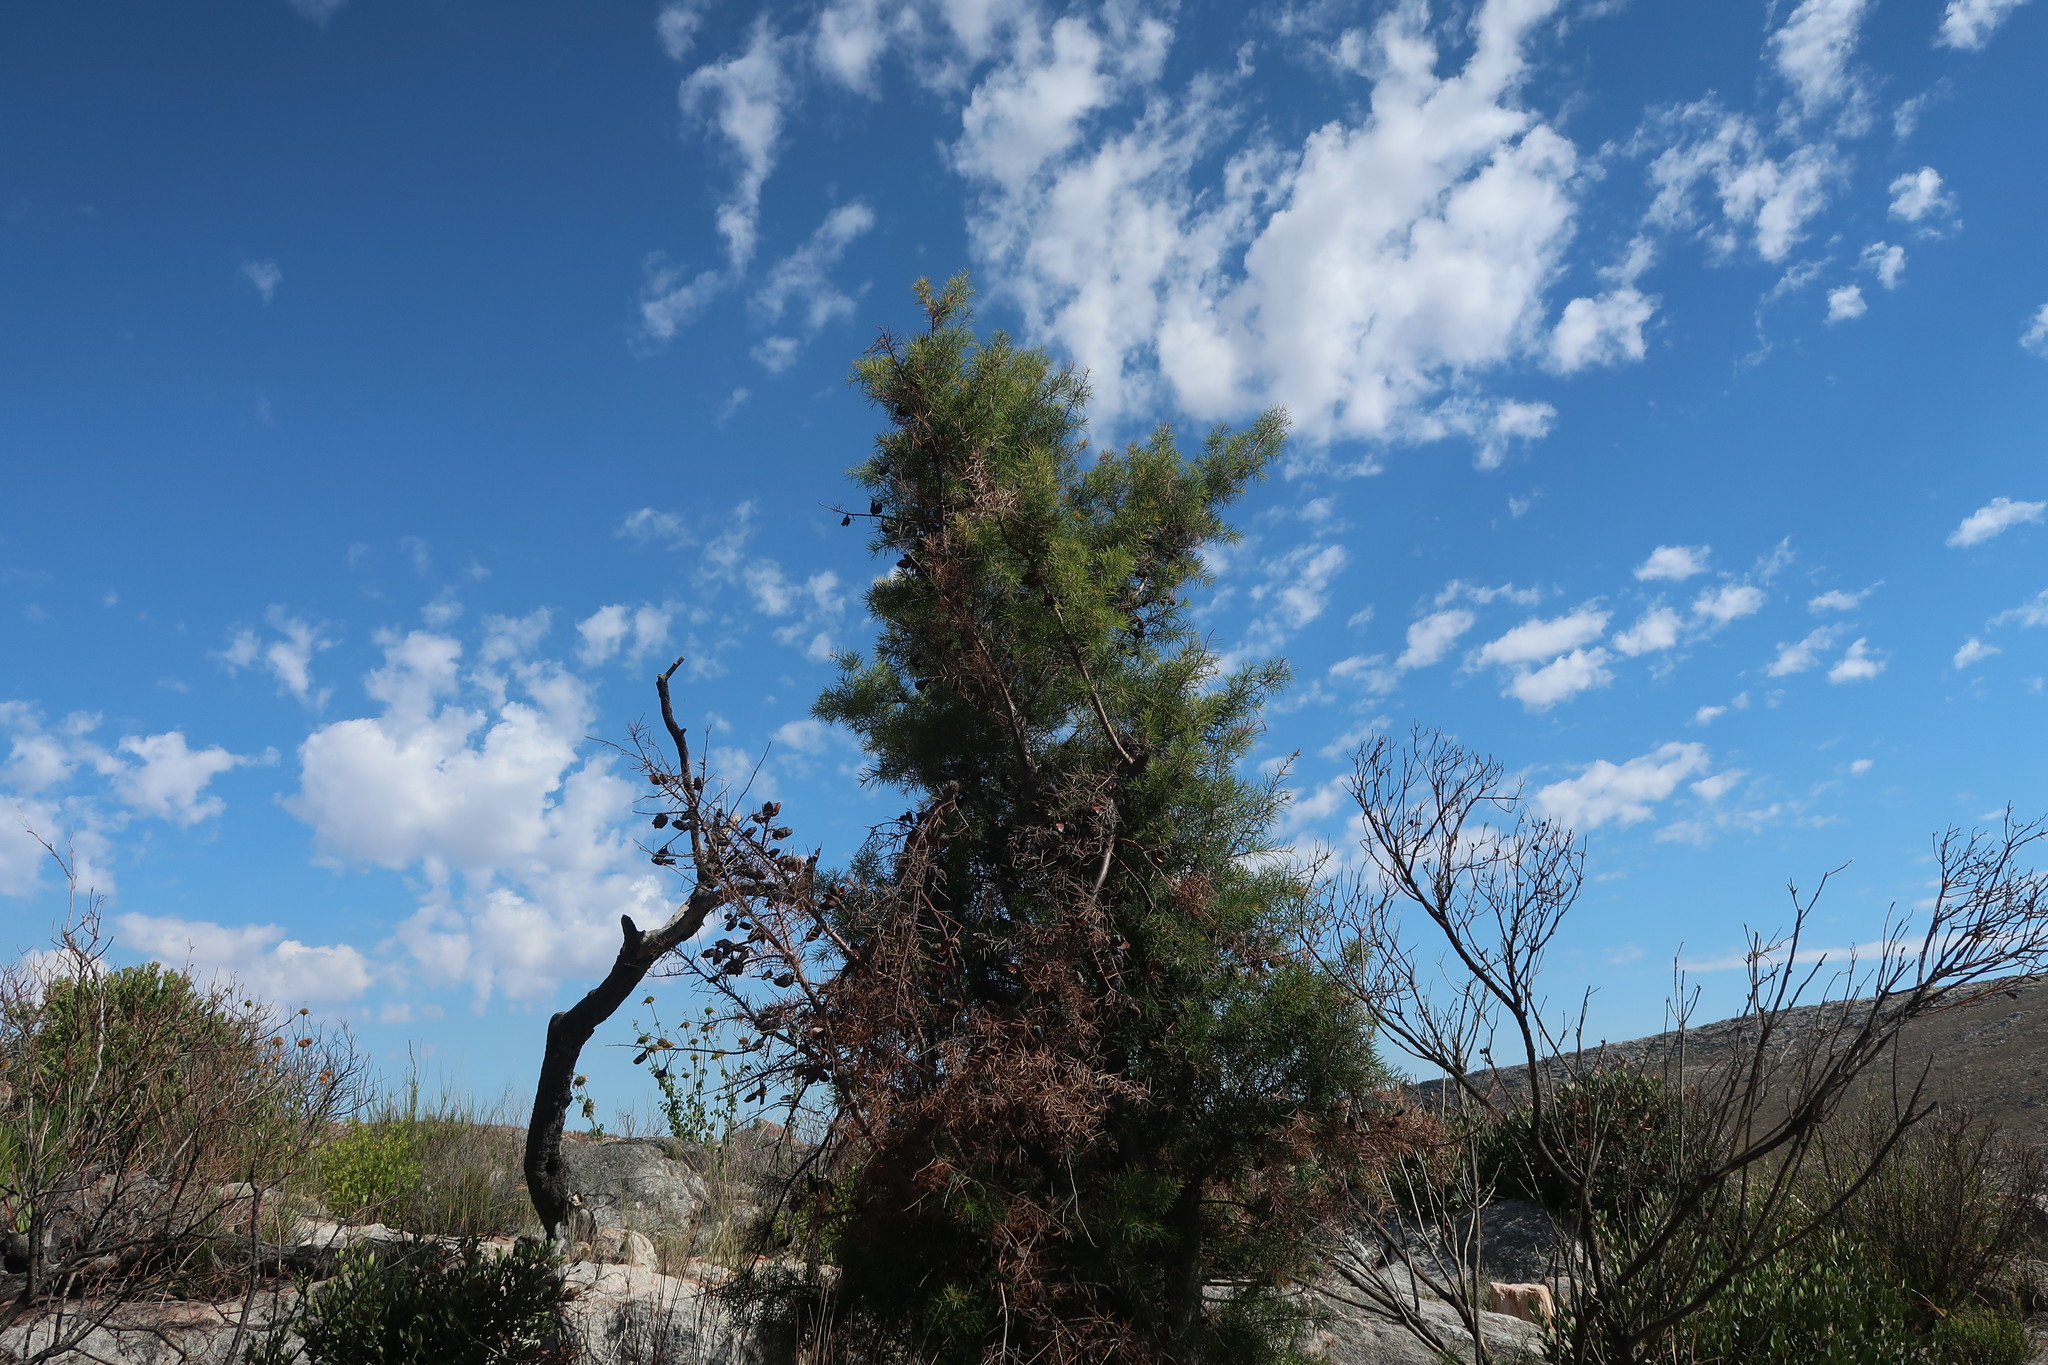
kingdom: Plantae
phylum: Tracheophyta
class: Magnoliopsida
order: Proteales
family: Proteaceae
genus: Hakea
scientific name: Hakea sericea
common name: Needle bush
